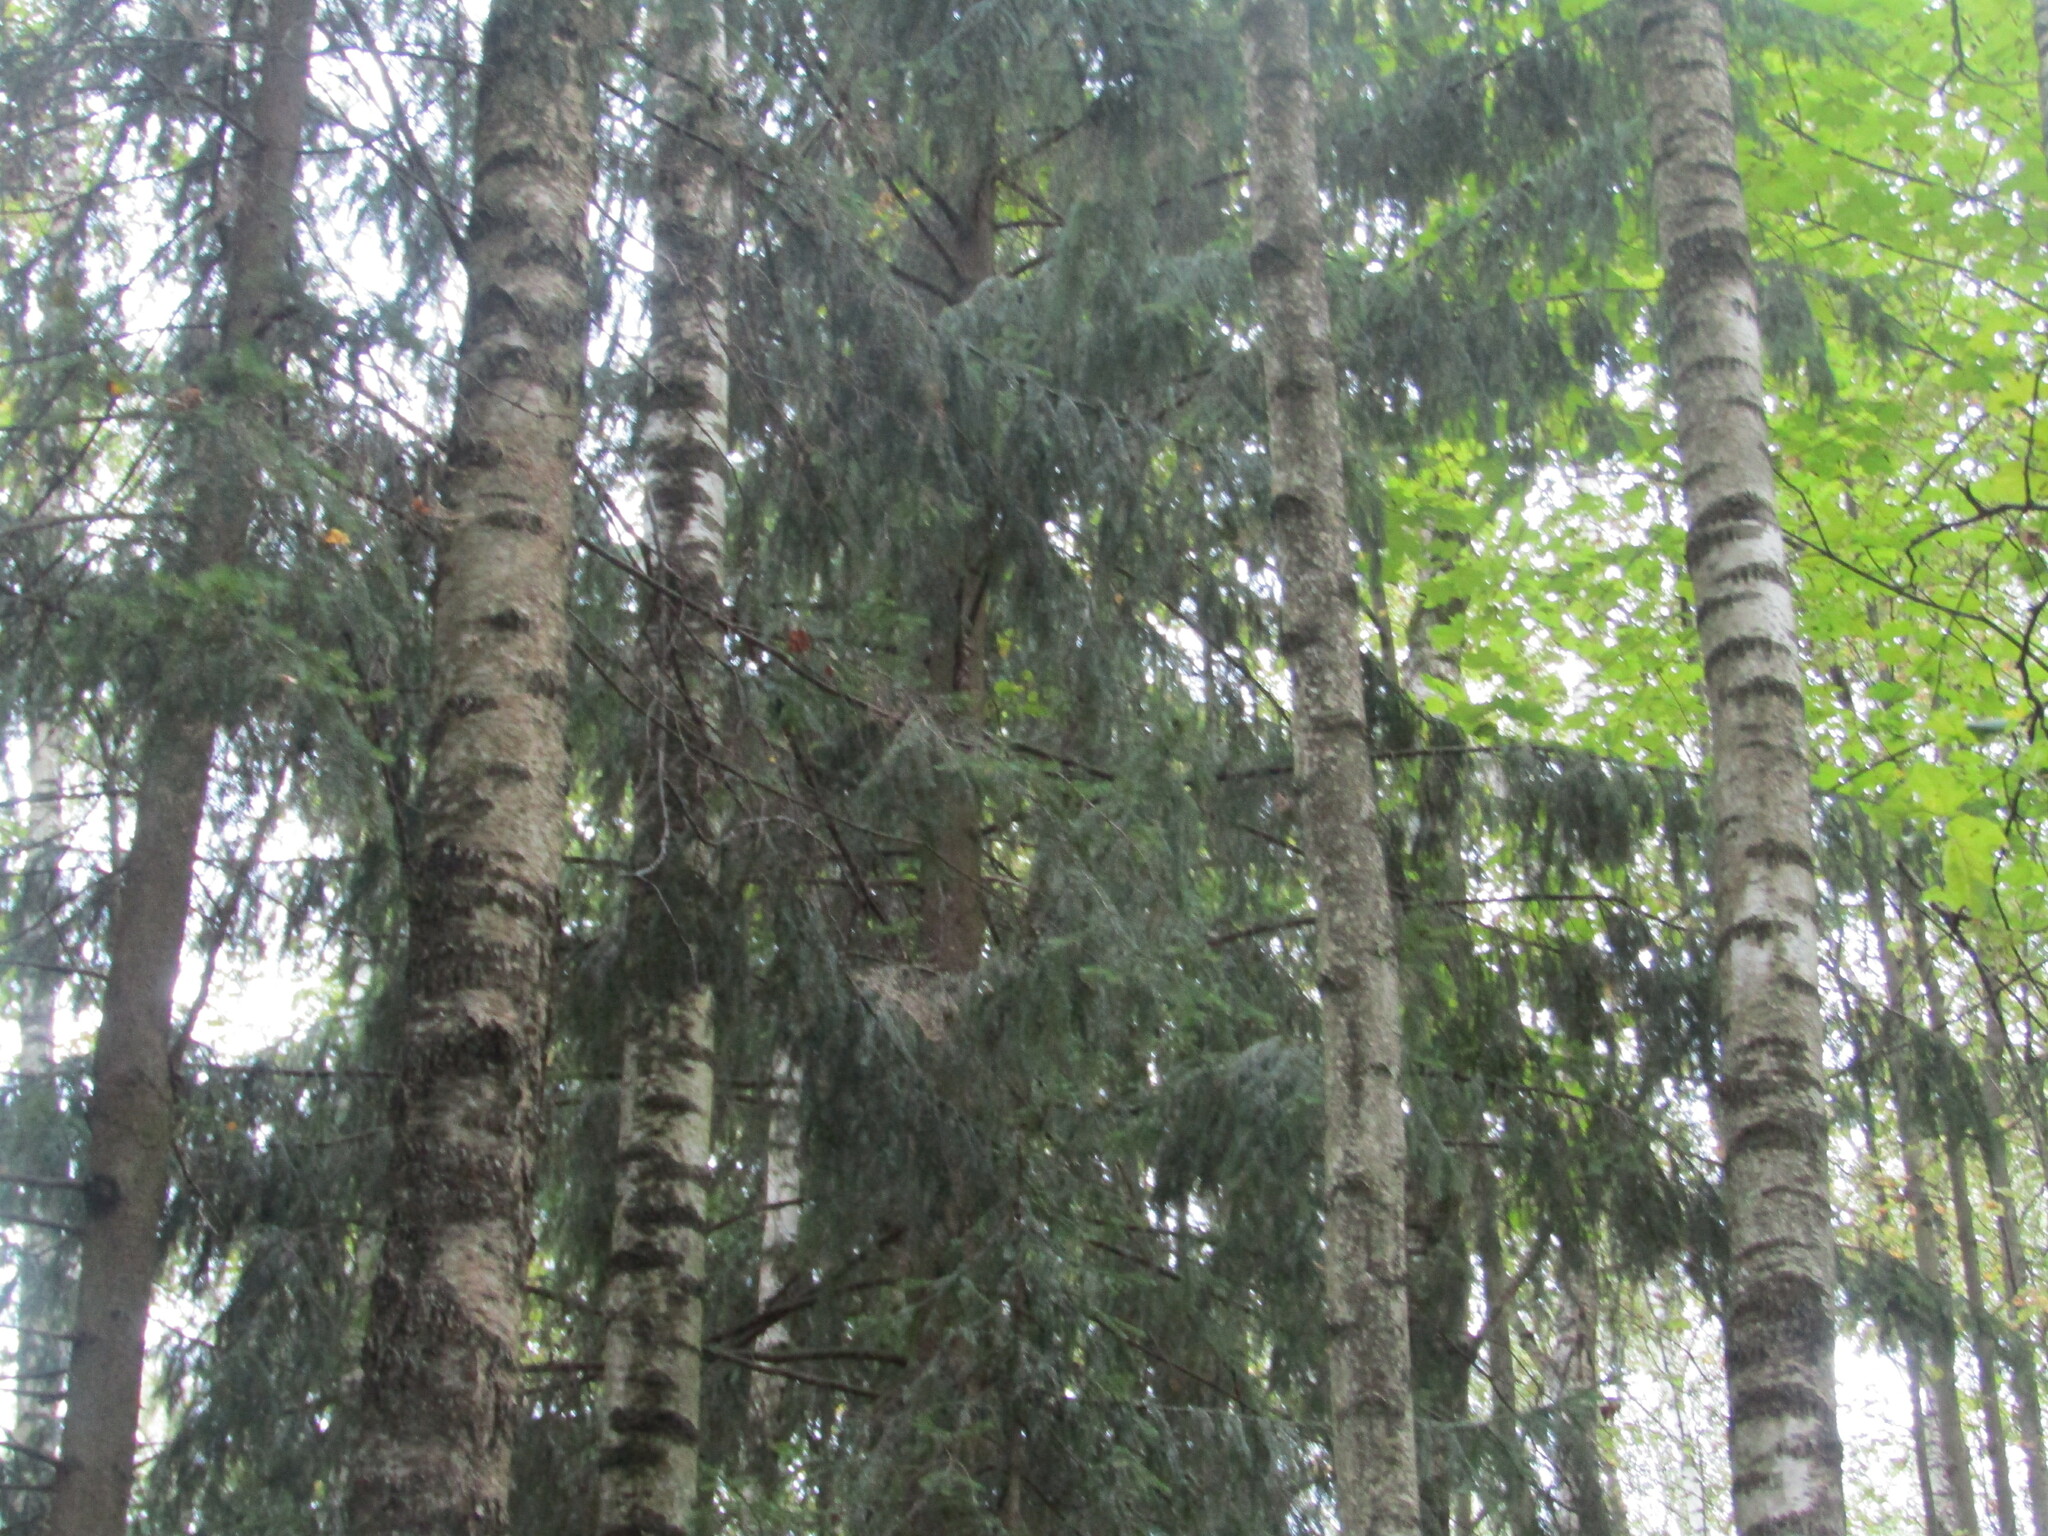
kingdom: Plantae
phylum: Tracheophyta
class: Pinopsida
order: Pinales
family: Pinaceae
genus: Picea
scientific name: Picea abies
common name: Norway spruce
